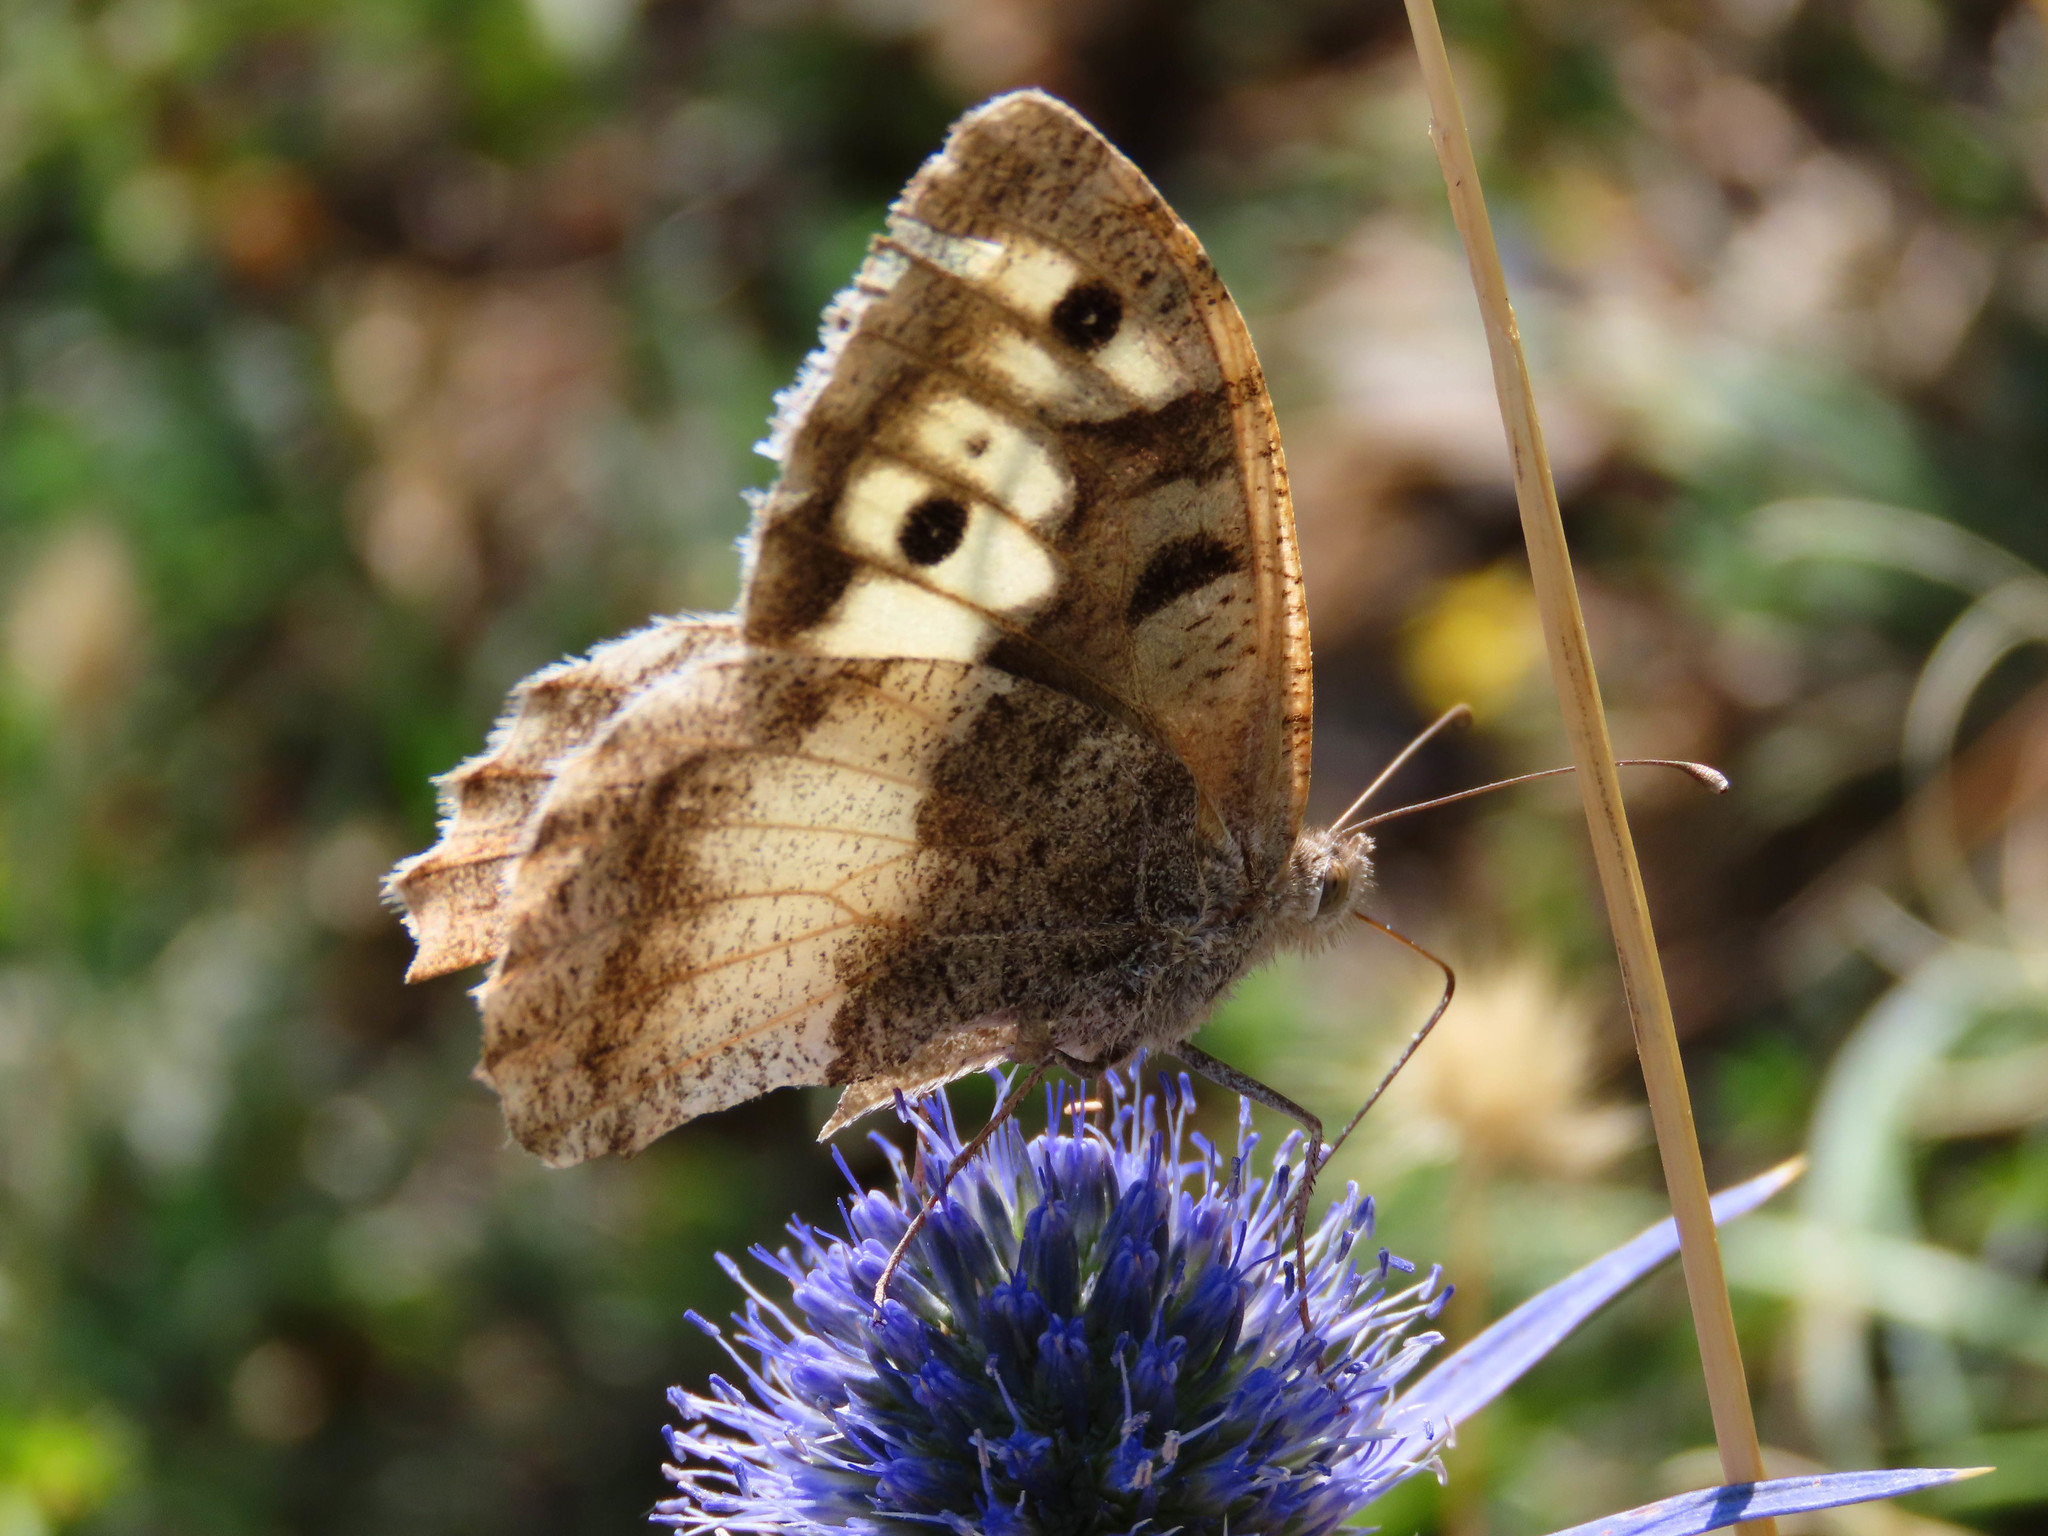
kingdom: Animalia
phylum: Arthropoda
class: Insecta
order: Lepidoptera
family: Nymphalidae
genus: Satyrus
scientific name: Satyrus briseis
